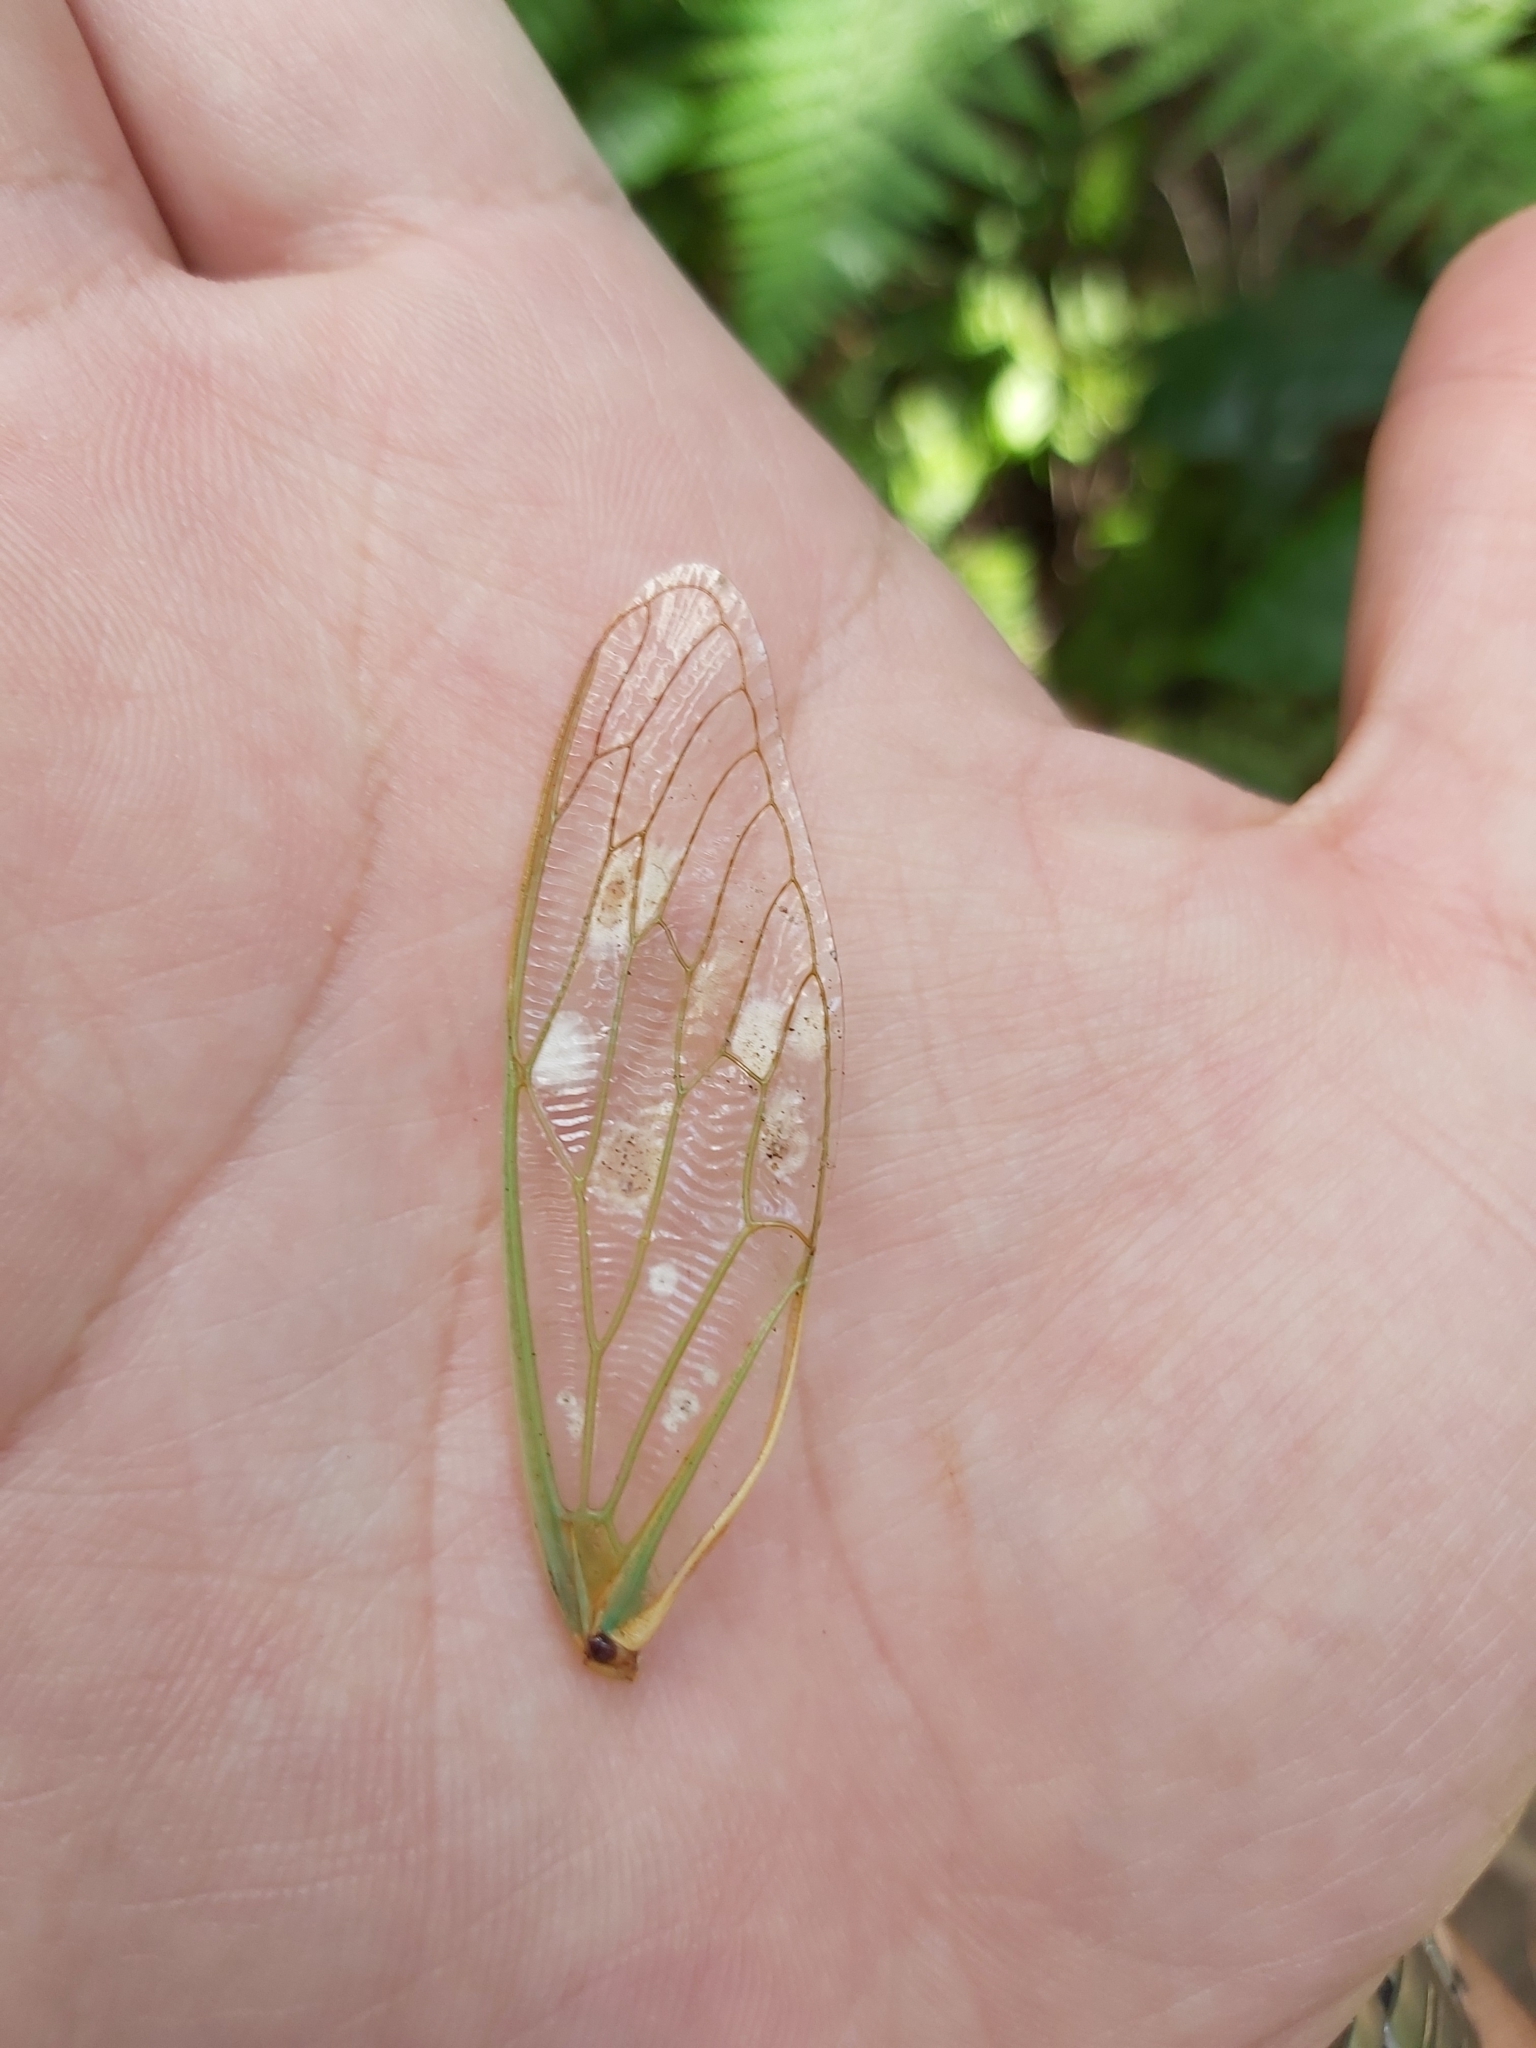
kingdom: Animalia
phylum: Arthropoda
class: Insecta
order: Hemiptera
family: Cicadidae
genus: Cyclochila
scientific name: Cyclochila australasiae
